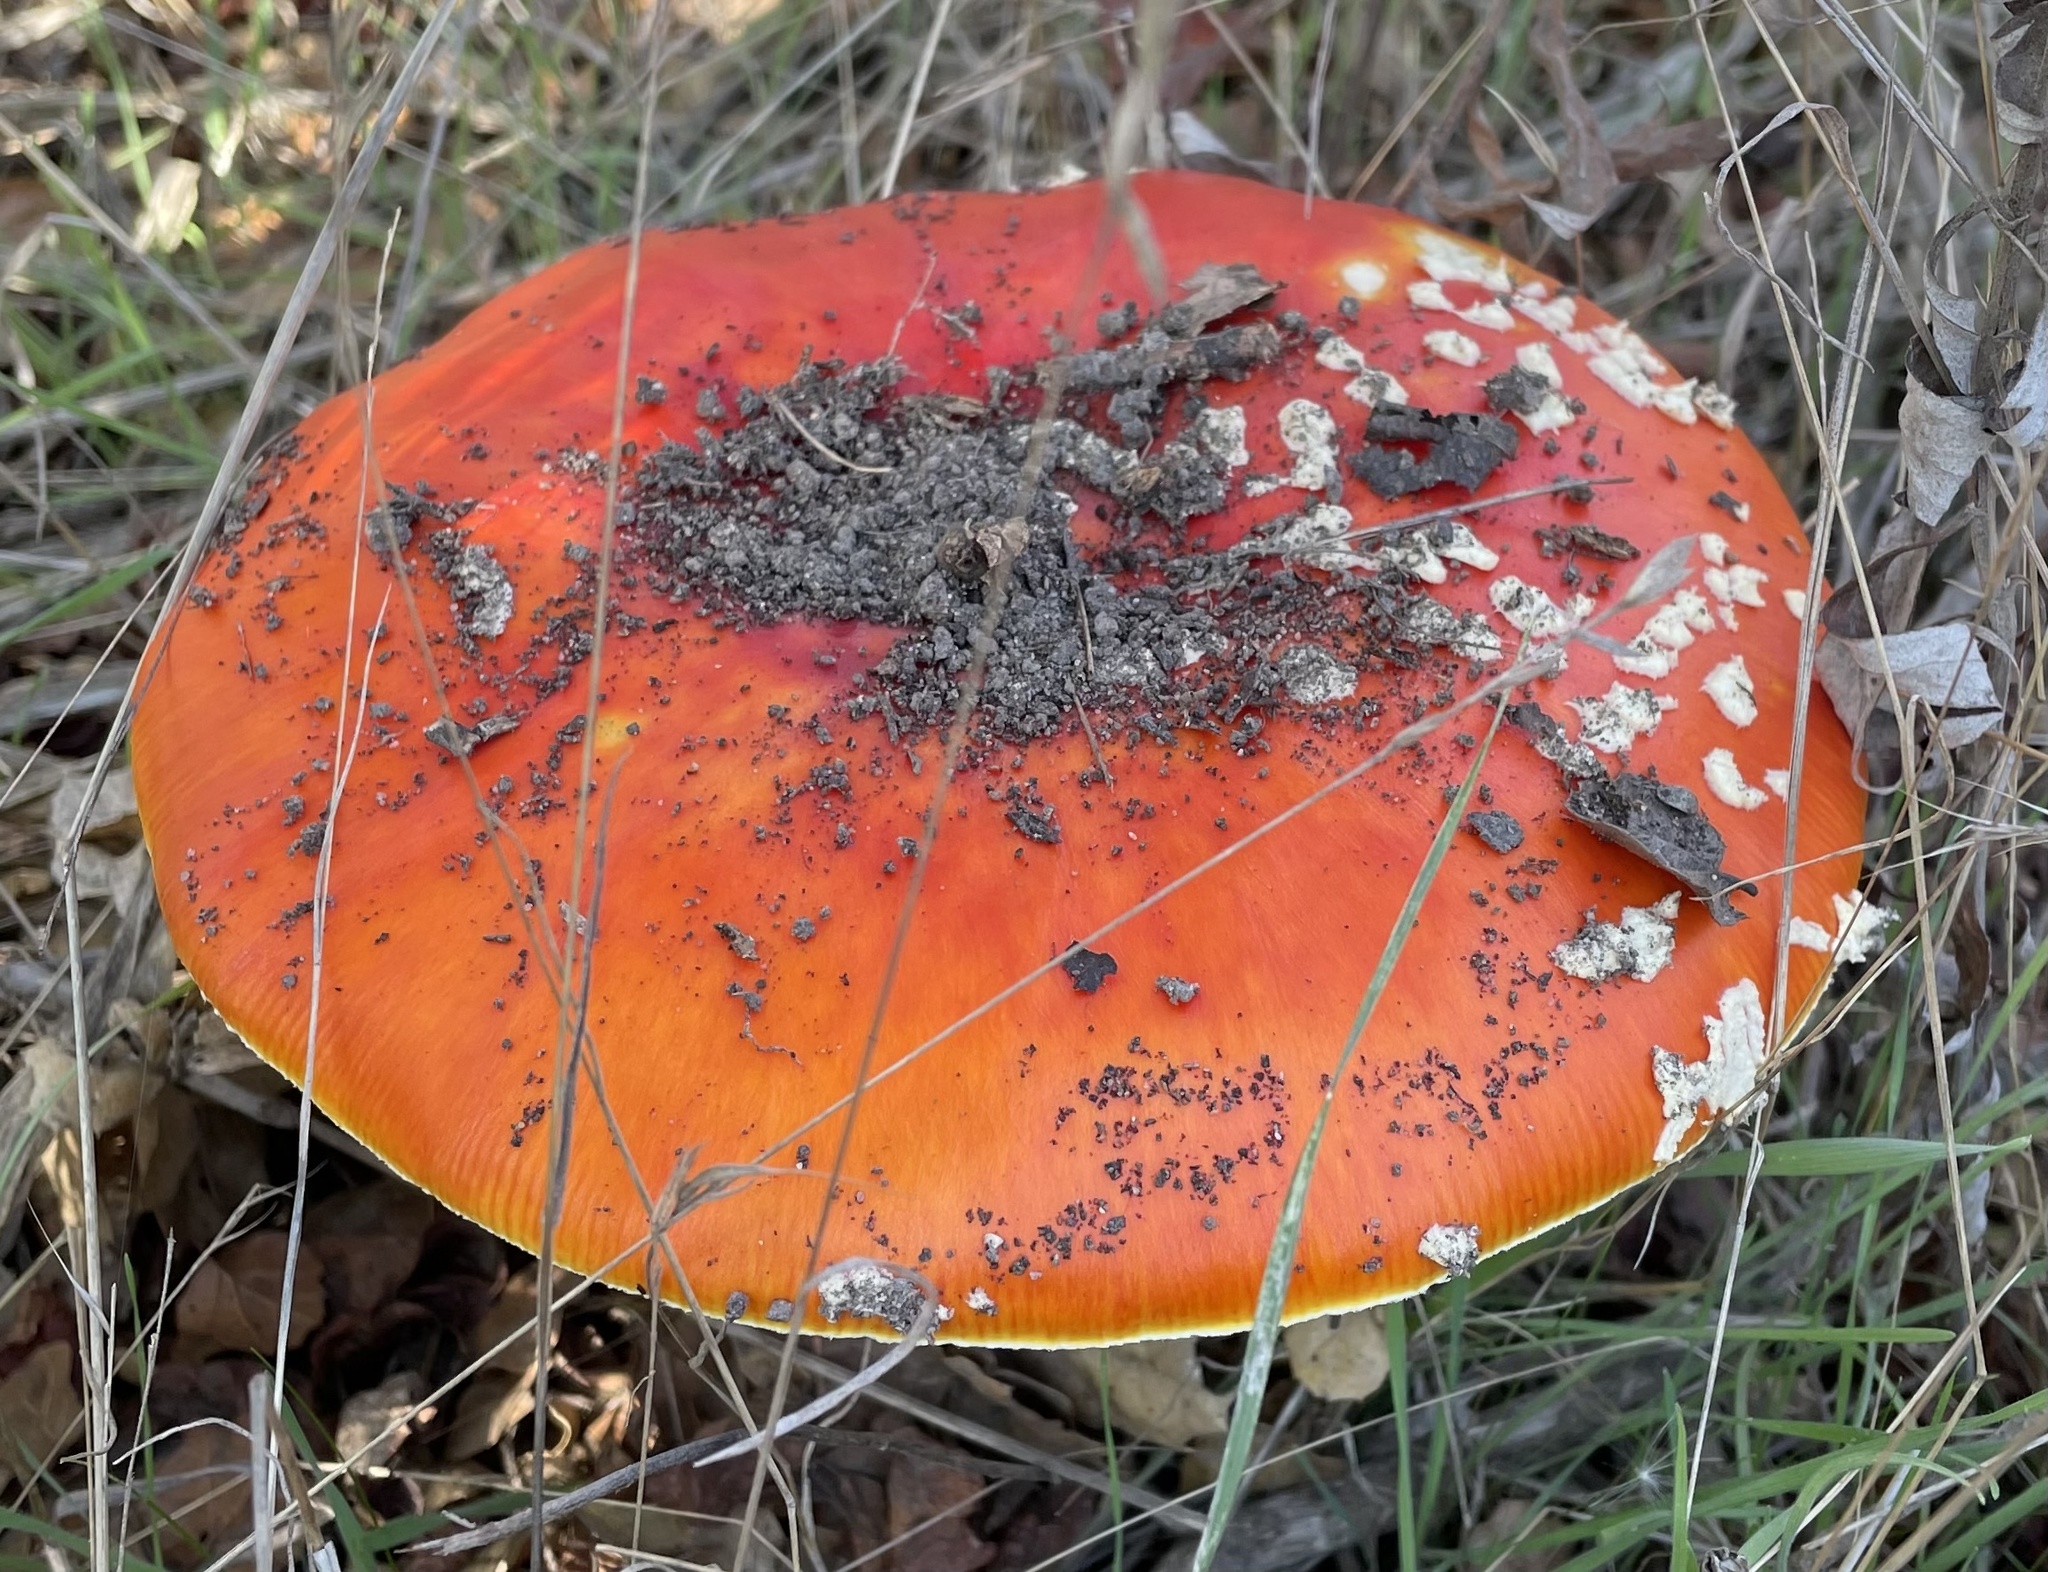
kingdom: Fungi
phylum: Basidiomycota
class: Agaricomycetes
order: Agaricales
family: Amanitaceae
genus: Amanita
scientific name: Amanita muscaria
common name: Fly agaric
